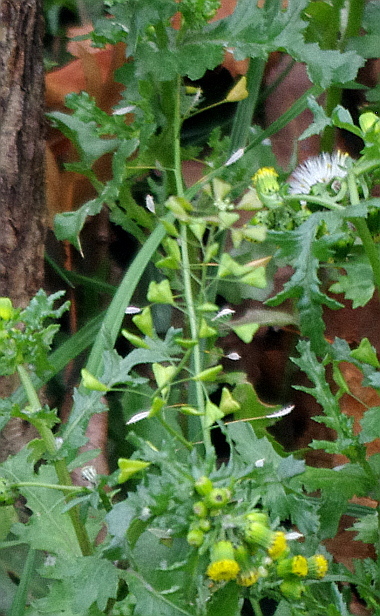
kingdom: Plantae
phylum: Tracheophyta
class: Magnoliopsida
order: Brassicales
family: Brassicaceae
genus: Capsella
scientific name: Capsella bursa-pastoris
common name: Shepherd's purse
